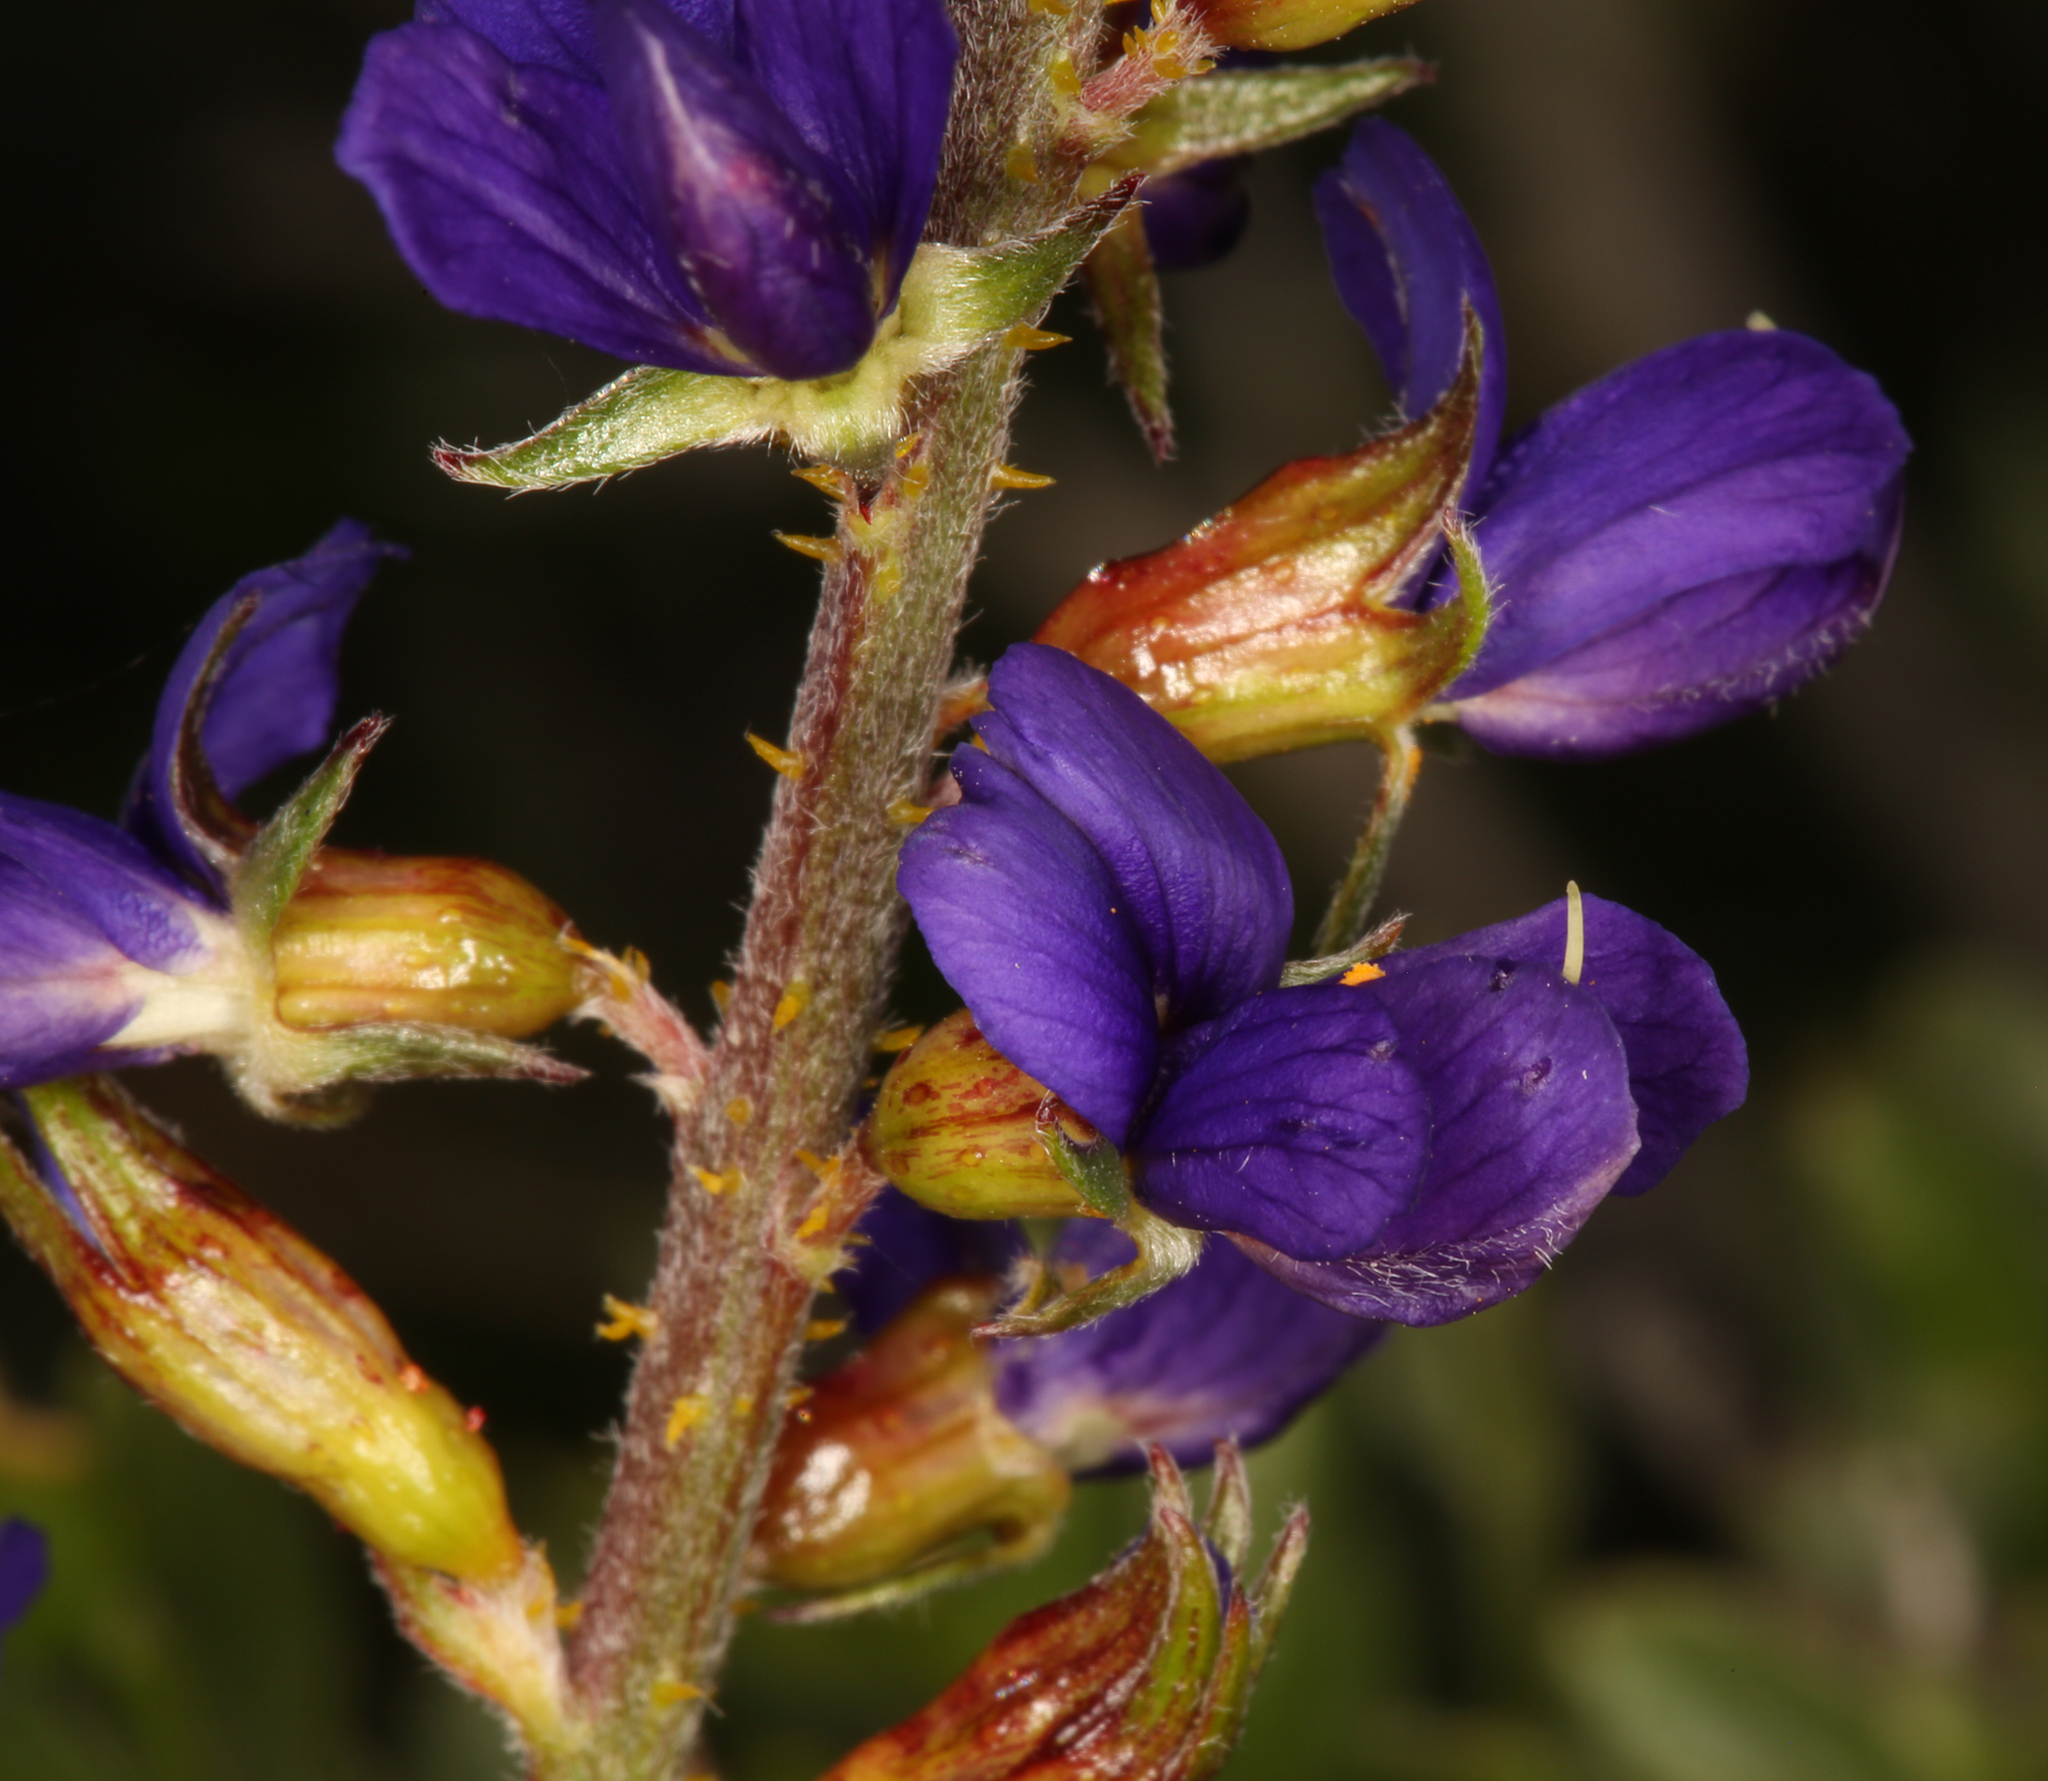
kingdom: Plantae
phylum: Tracheophyta
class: Magnoliopsida
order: Fabales
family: Fabaceae
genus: Psorothamnus
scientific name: Psorothamnus arborescens
